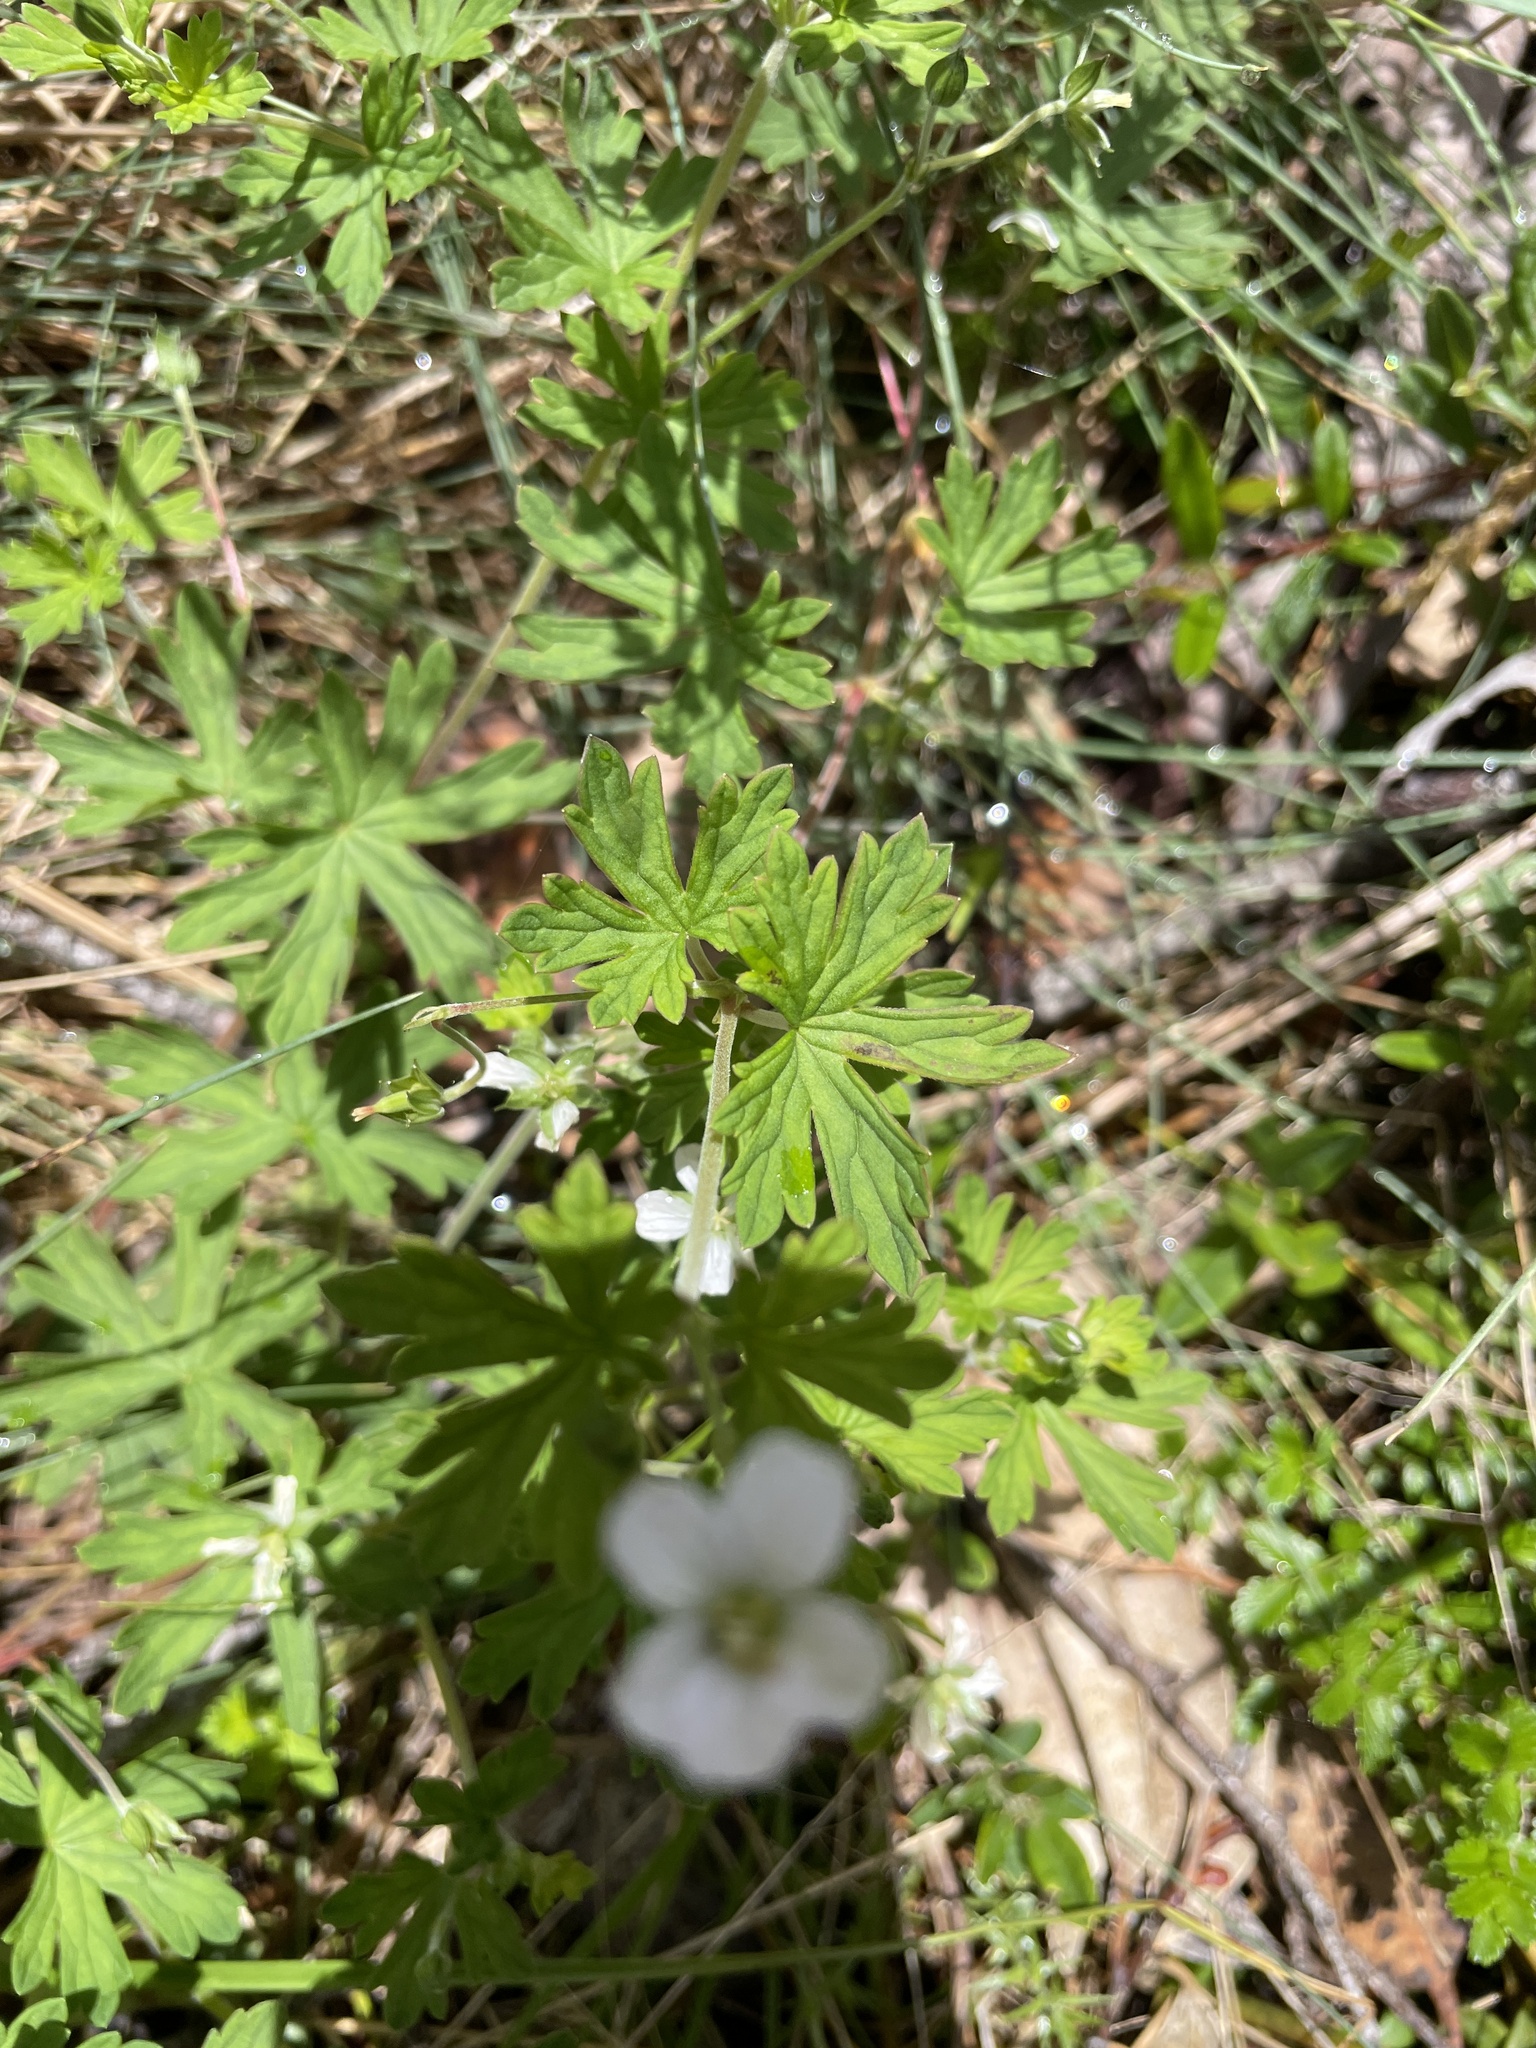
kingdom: Plantae
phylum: Tracheophyta
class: Magnoliopsida
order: Geraniales
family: Geraniaceae
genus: Geranium
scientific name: Geranium potentilloides
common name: Cinquefoil geranium
